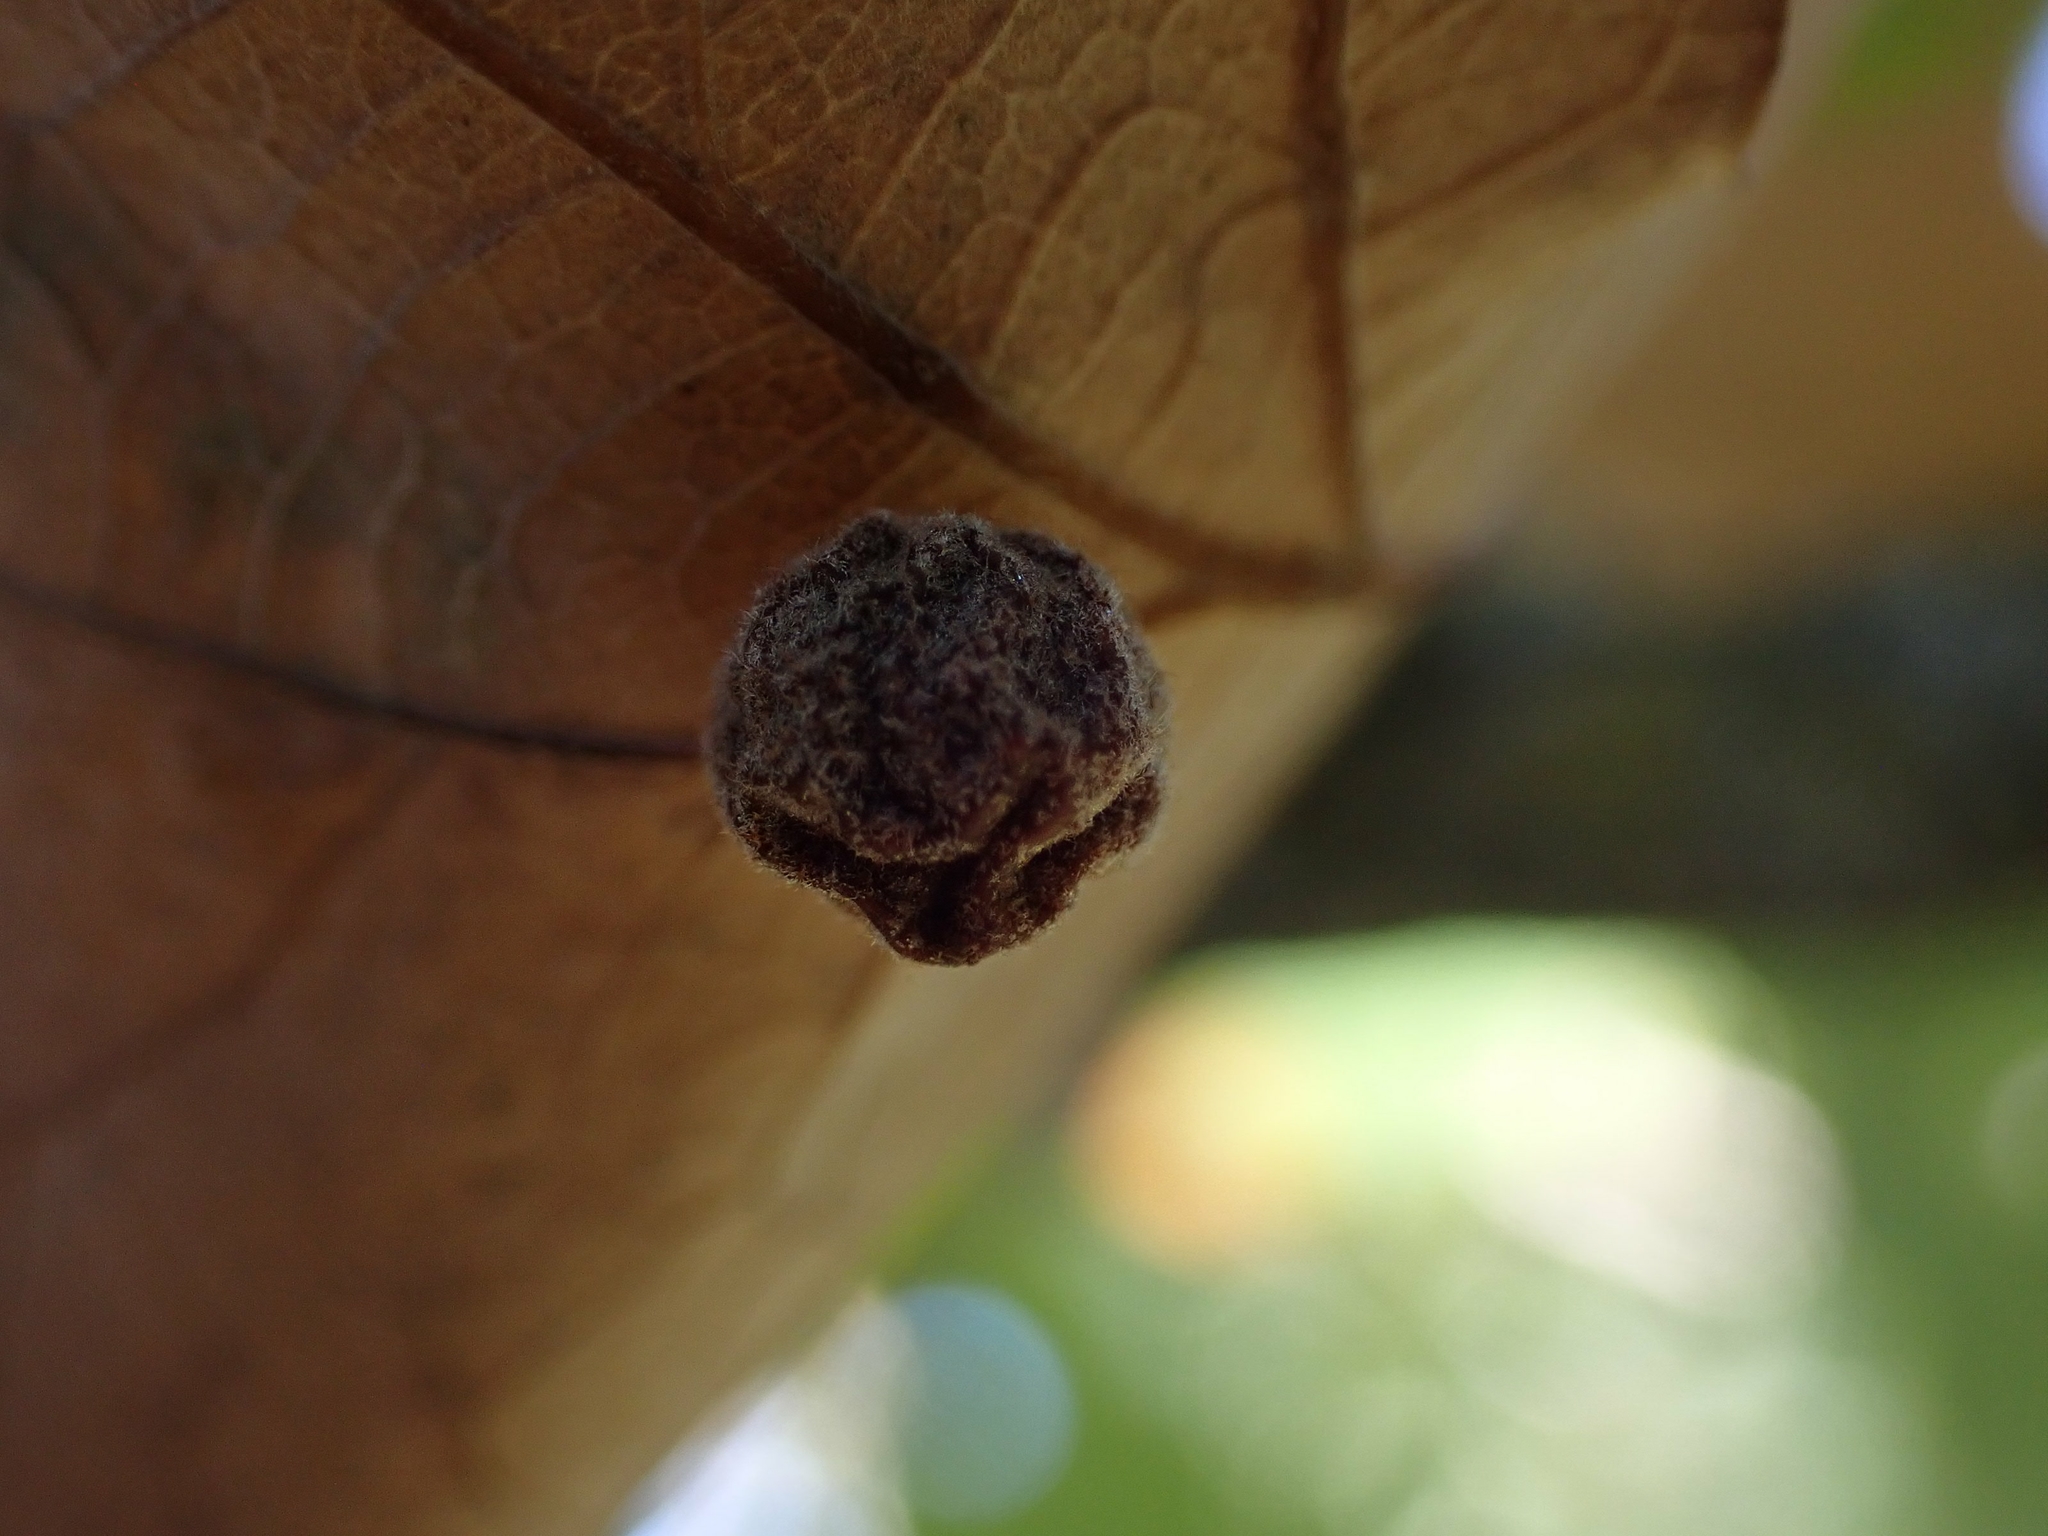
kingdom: Animalia
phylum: Arthropoda
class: Insecta
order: Hymenoptera
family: Cynipidae
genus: Philonix
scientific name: Philonix fulvicollis
